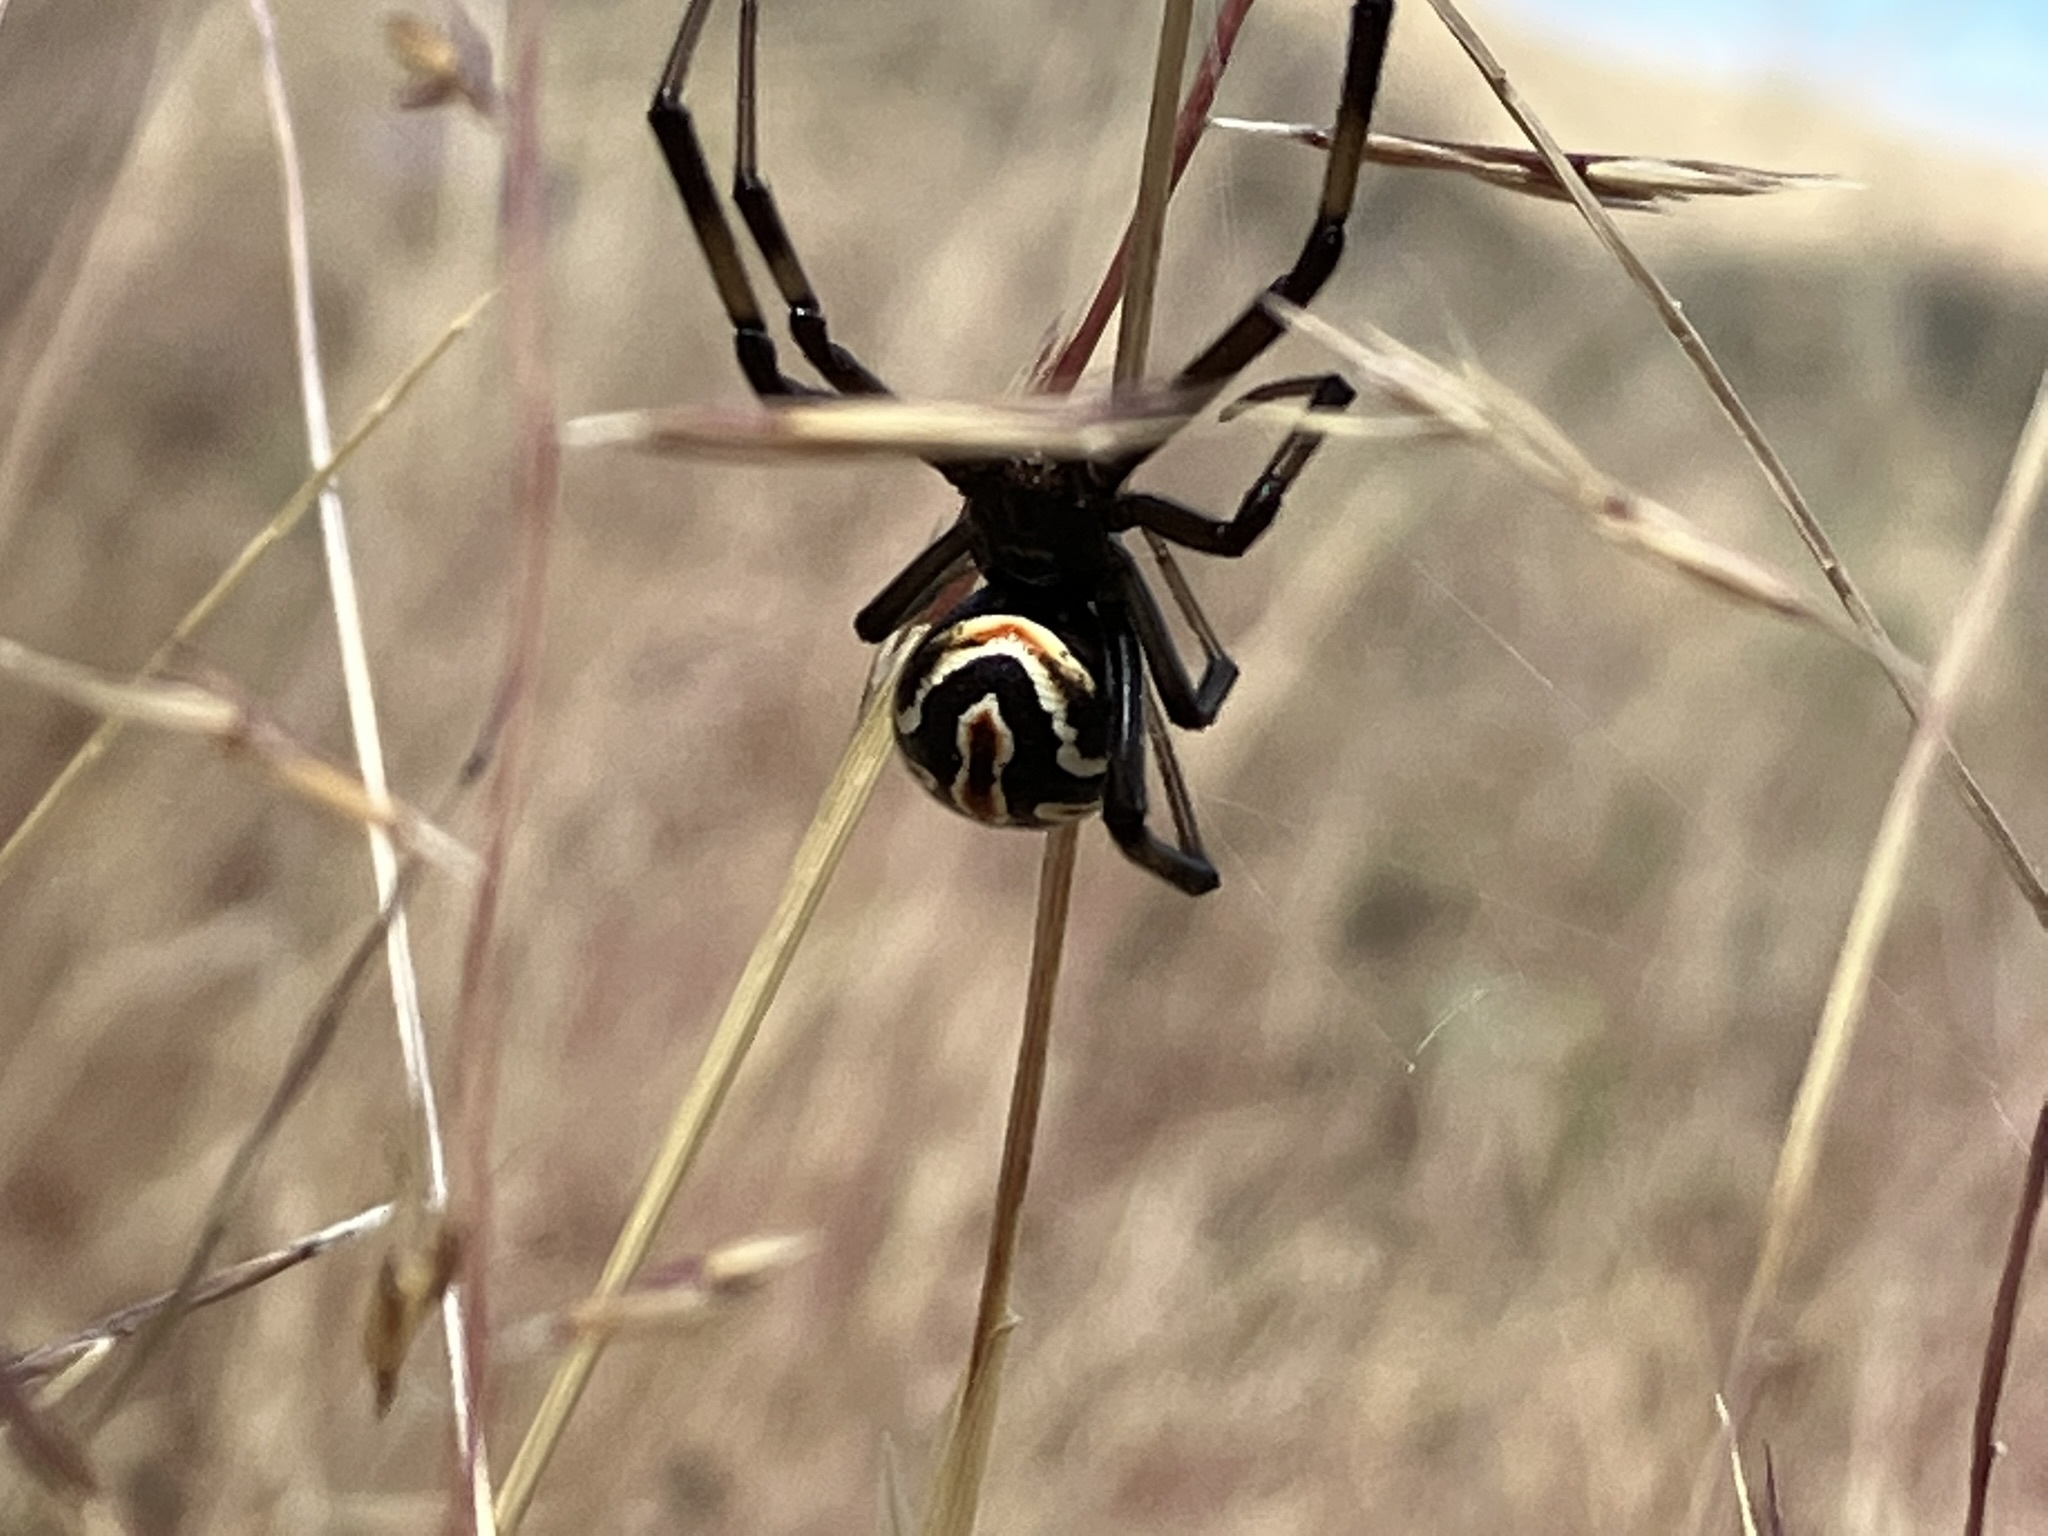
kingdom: Animalia
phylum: Arthropoda
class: Arachnida
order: Araneae
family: Theridiidae
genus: Latrodectus
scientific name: Latrodectus hesperus
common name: Western black widow
